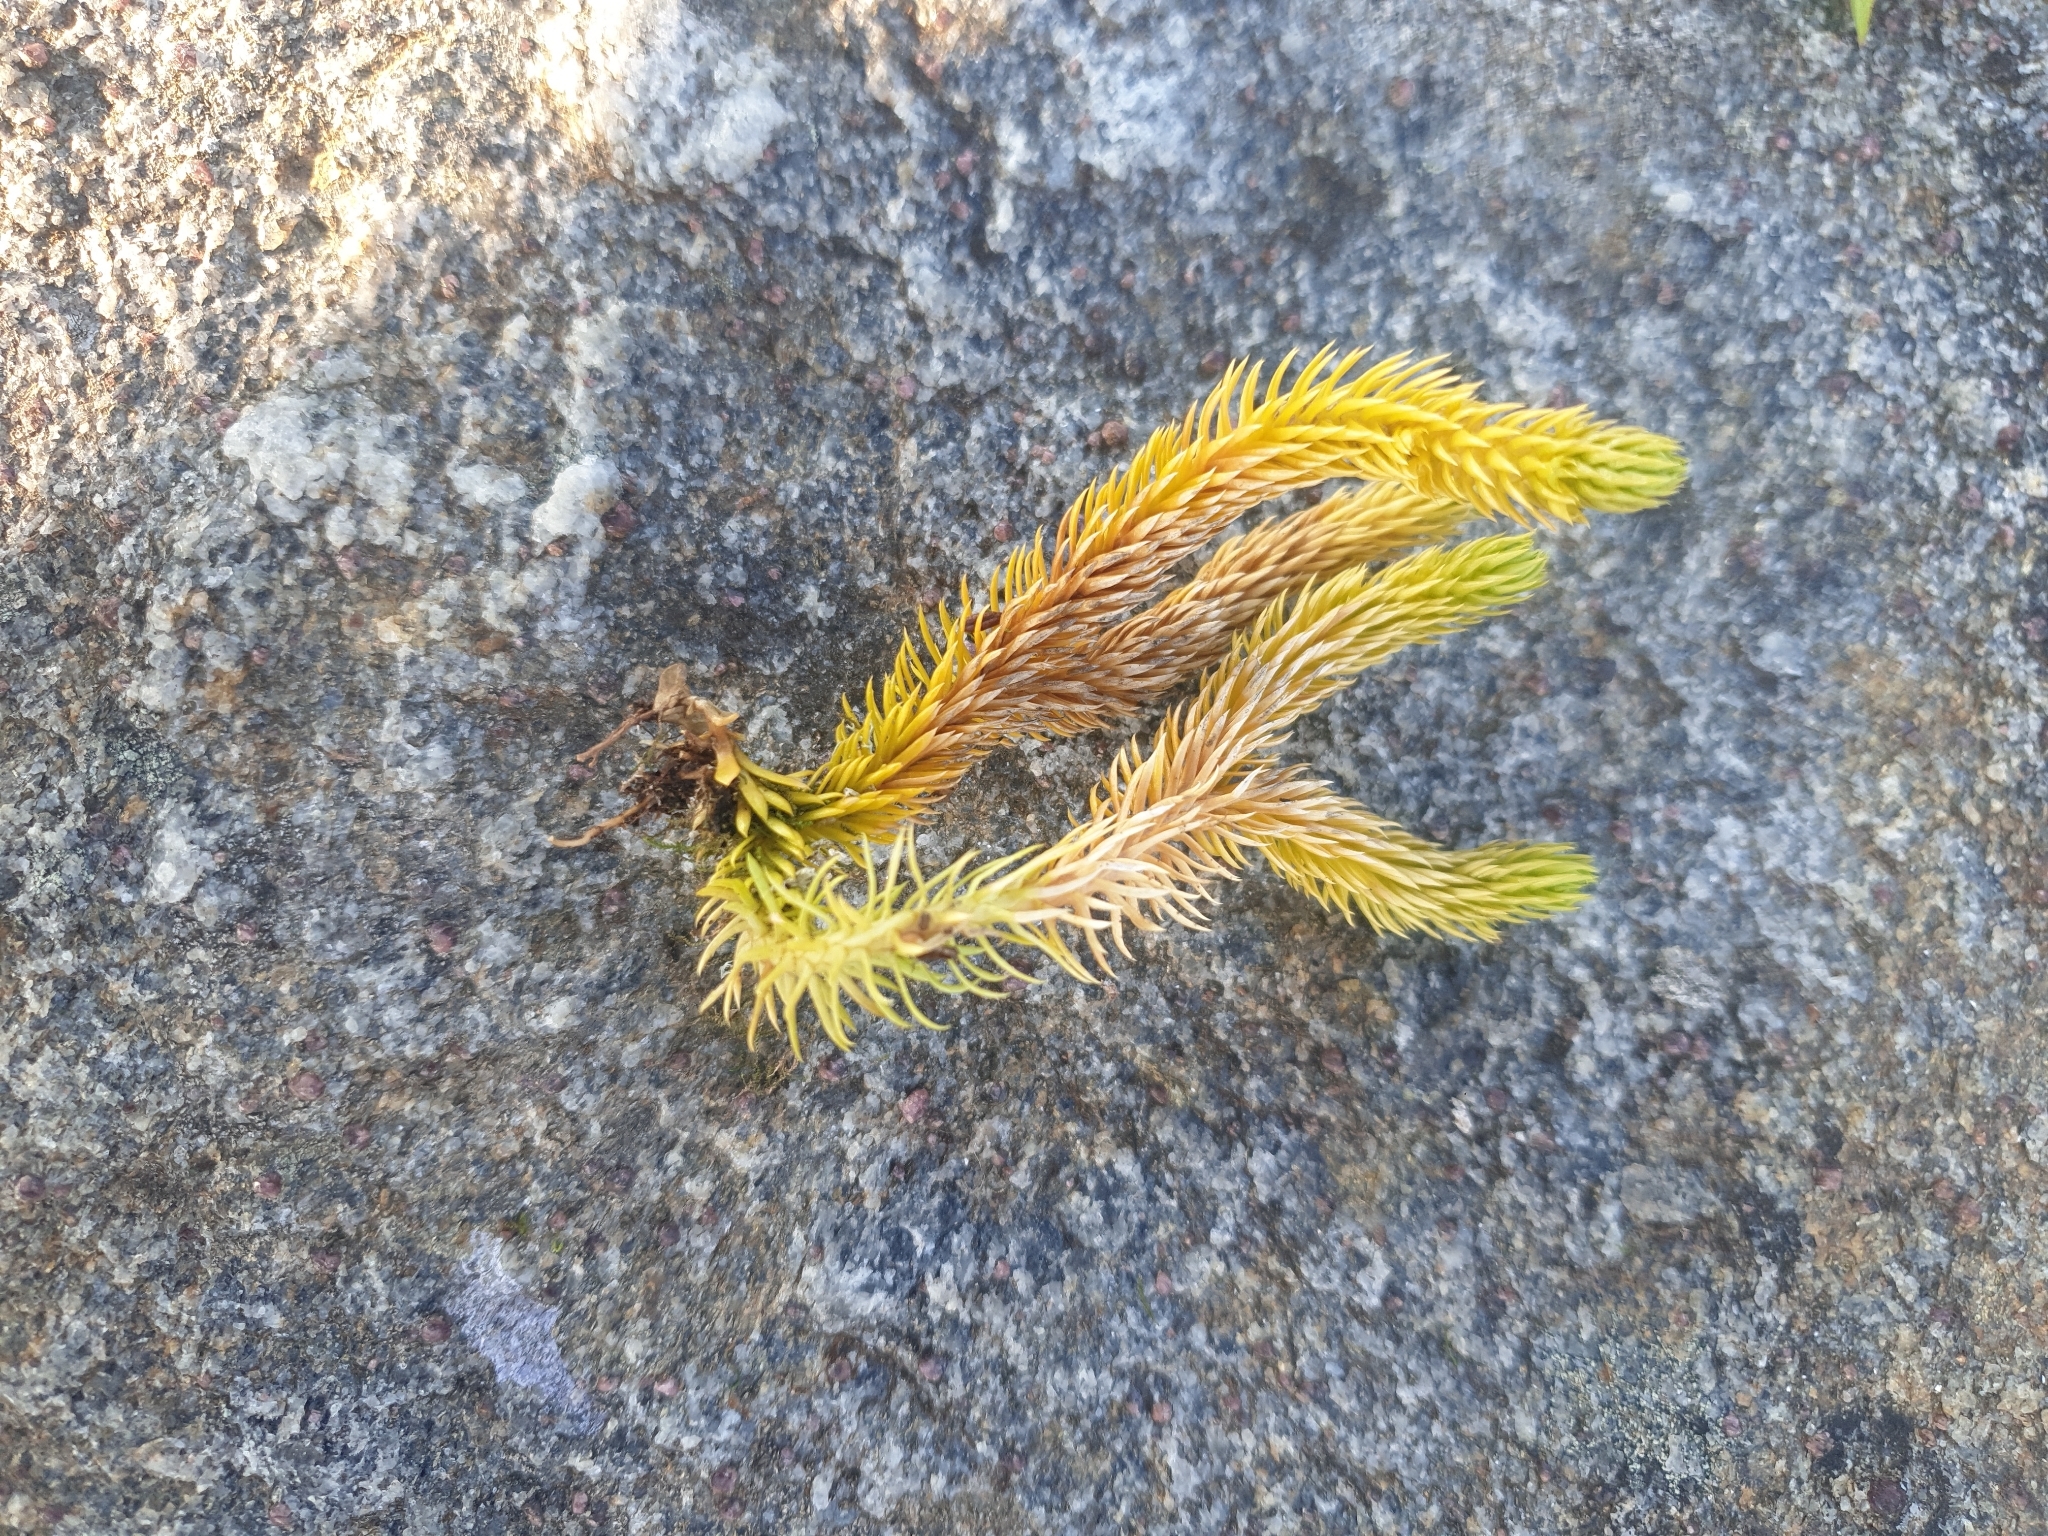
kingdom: Plantae
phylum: Tracheophyta
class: Lycopodiopsida
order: Lycopodiales
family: Lycopodiaceae
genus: Huperzia
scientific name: Huperzia selago
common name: Northern firmoss
